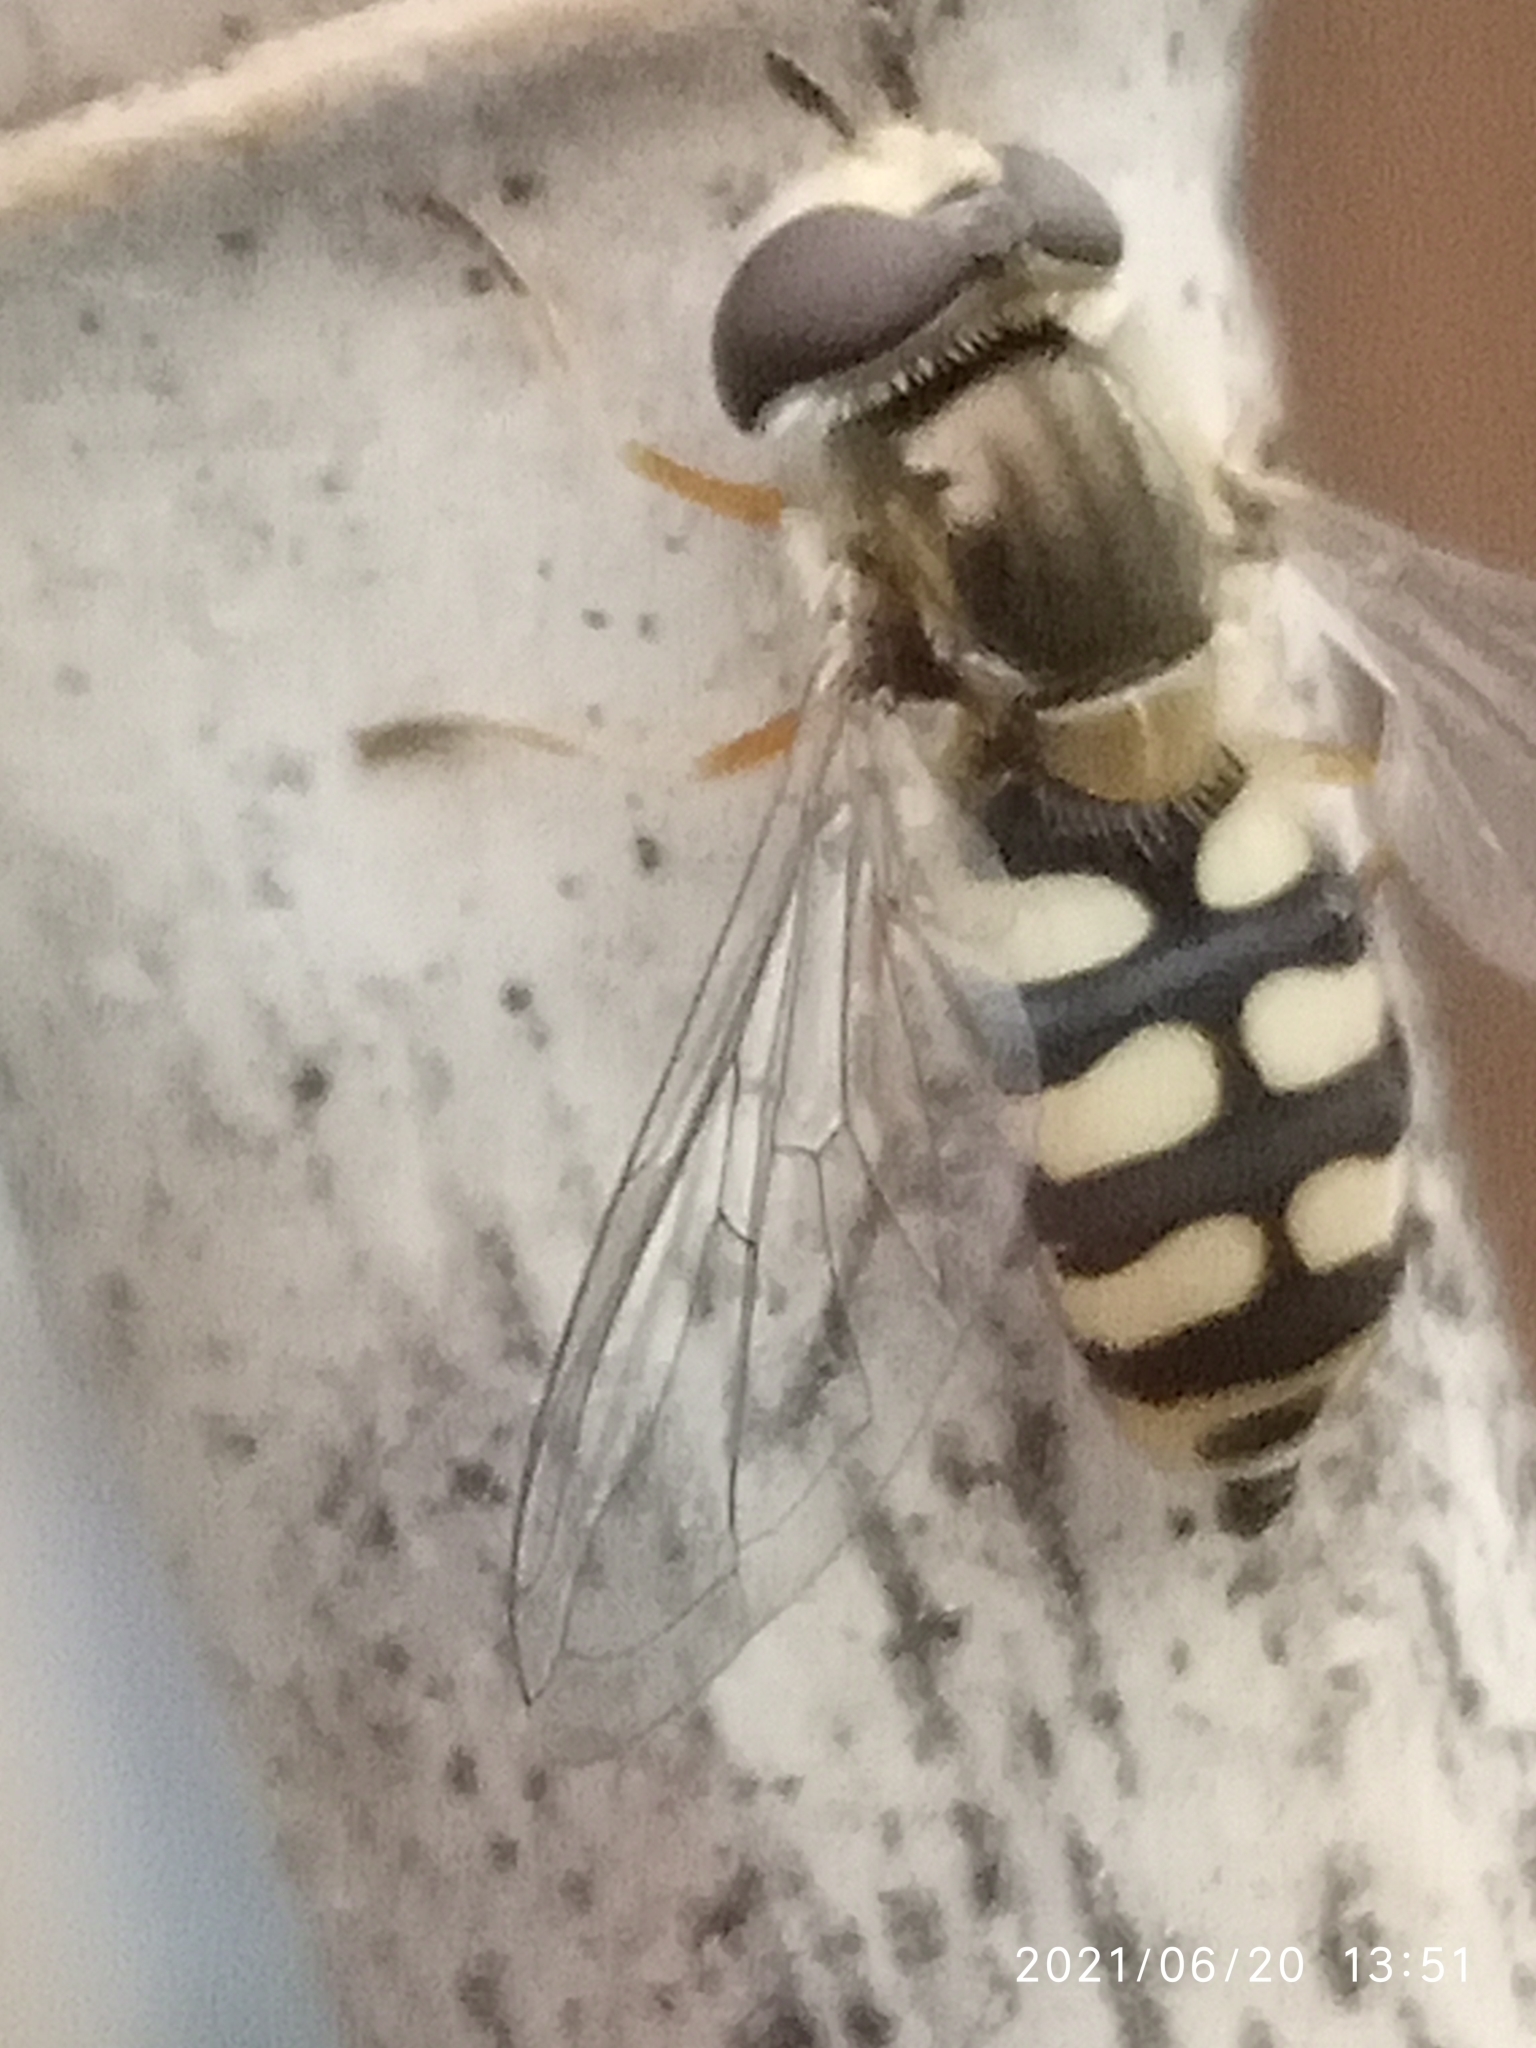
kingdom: Animalia
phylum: Arthropoda
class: Insecta
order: Diptera
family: Syrphidae
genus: Eupeodes
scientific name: Eupeodes corollae
